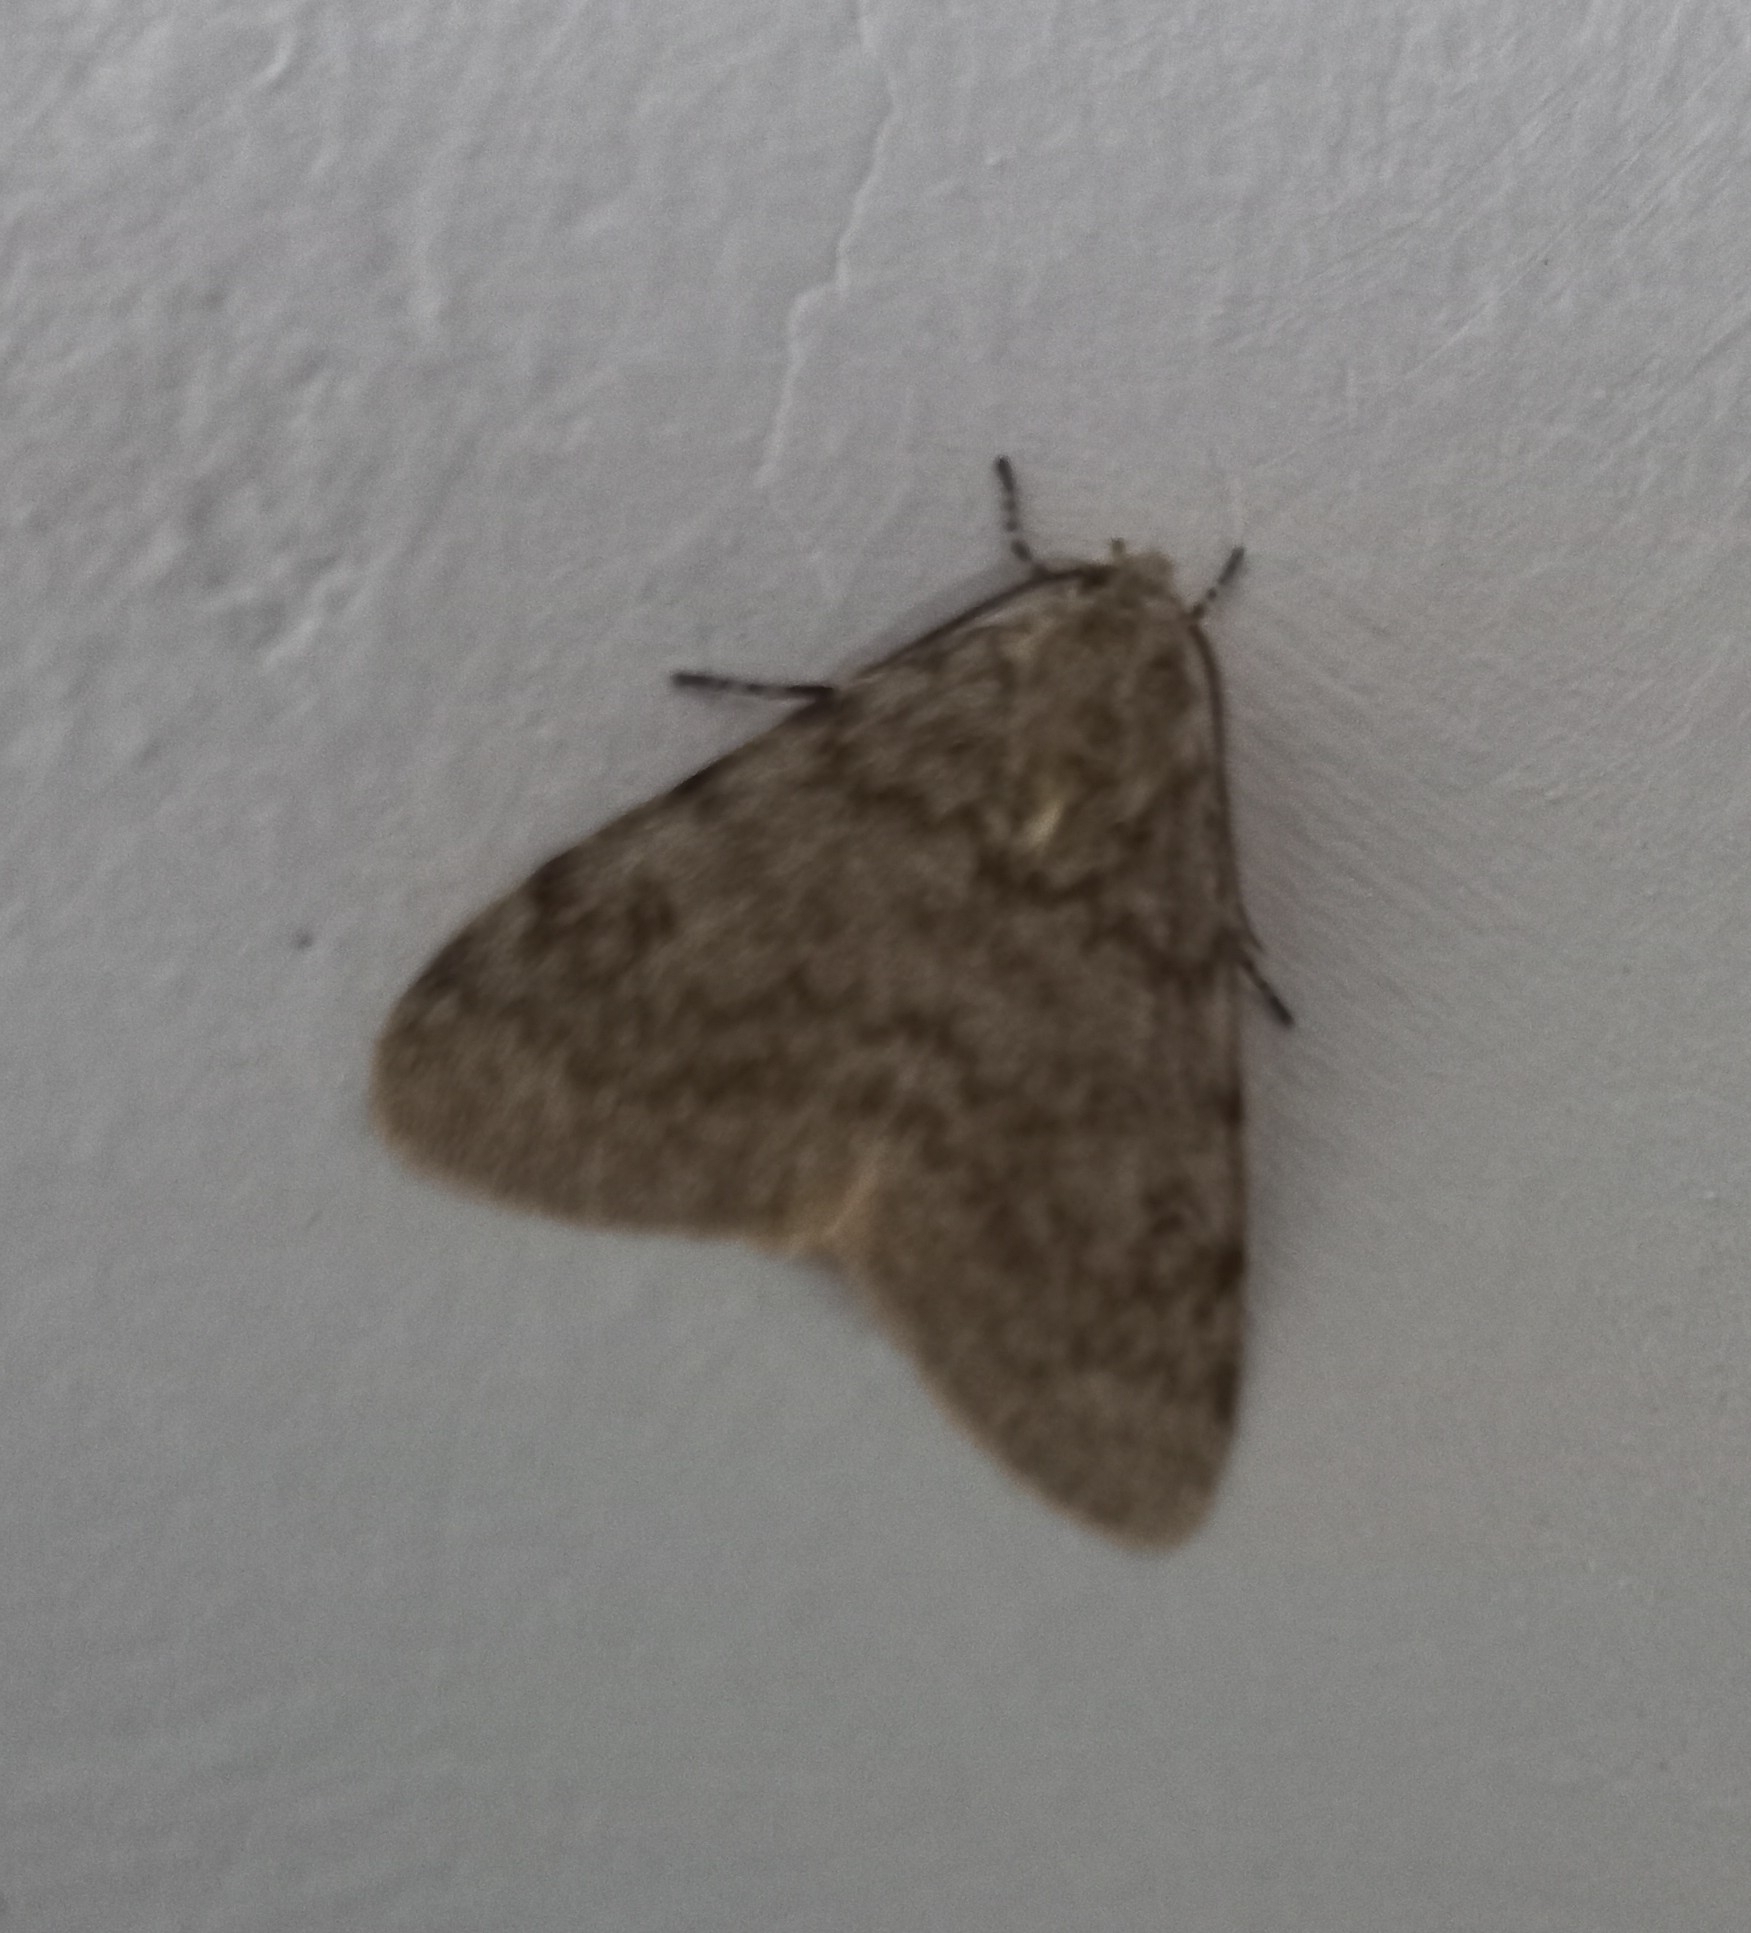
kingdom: Animalia
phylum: Arthropoda
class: Insecta
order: Lepidoptera
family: Erebidae
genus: Cymaroa
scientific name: Cymaroa grisea
